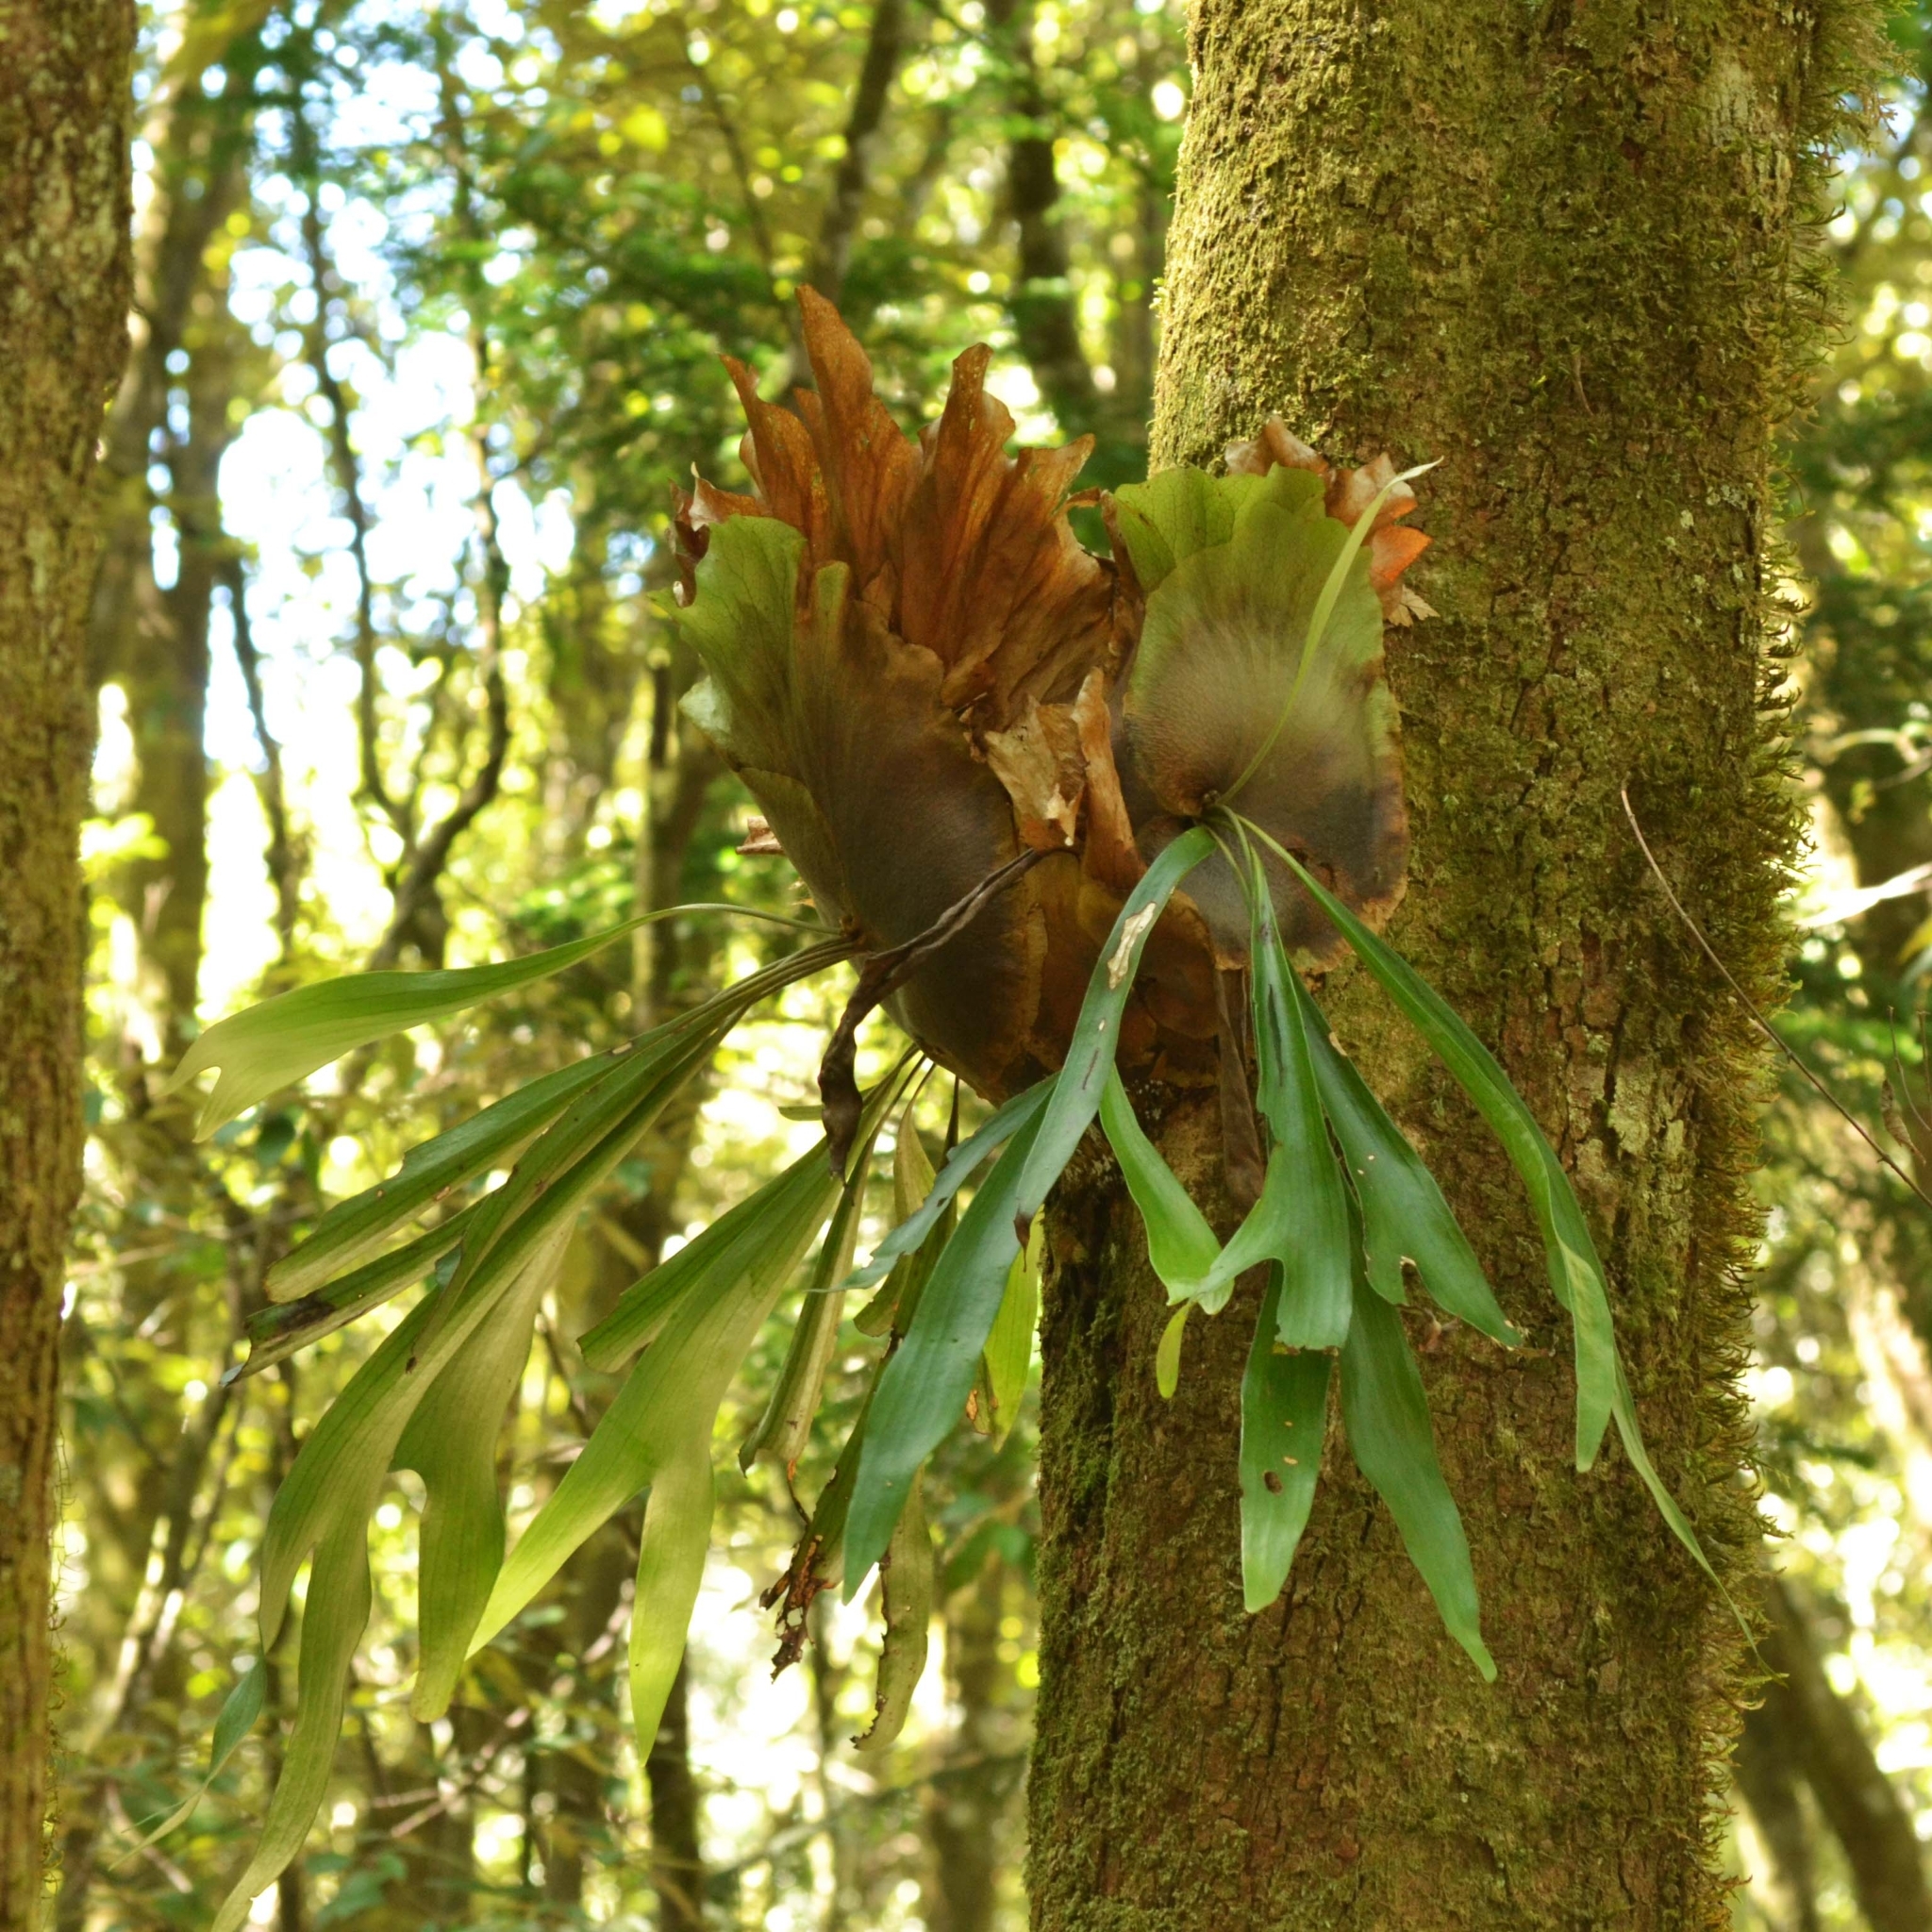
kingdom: Plantae
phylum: Tracheophyta
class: Polypodiopsida
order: Polypodiales
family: Polypodiaceae
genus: Platycerium
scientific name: Platycerium bifurcatum
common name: Elkhorn fern
